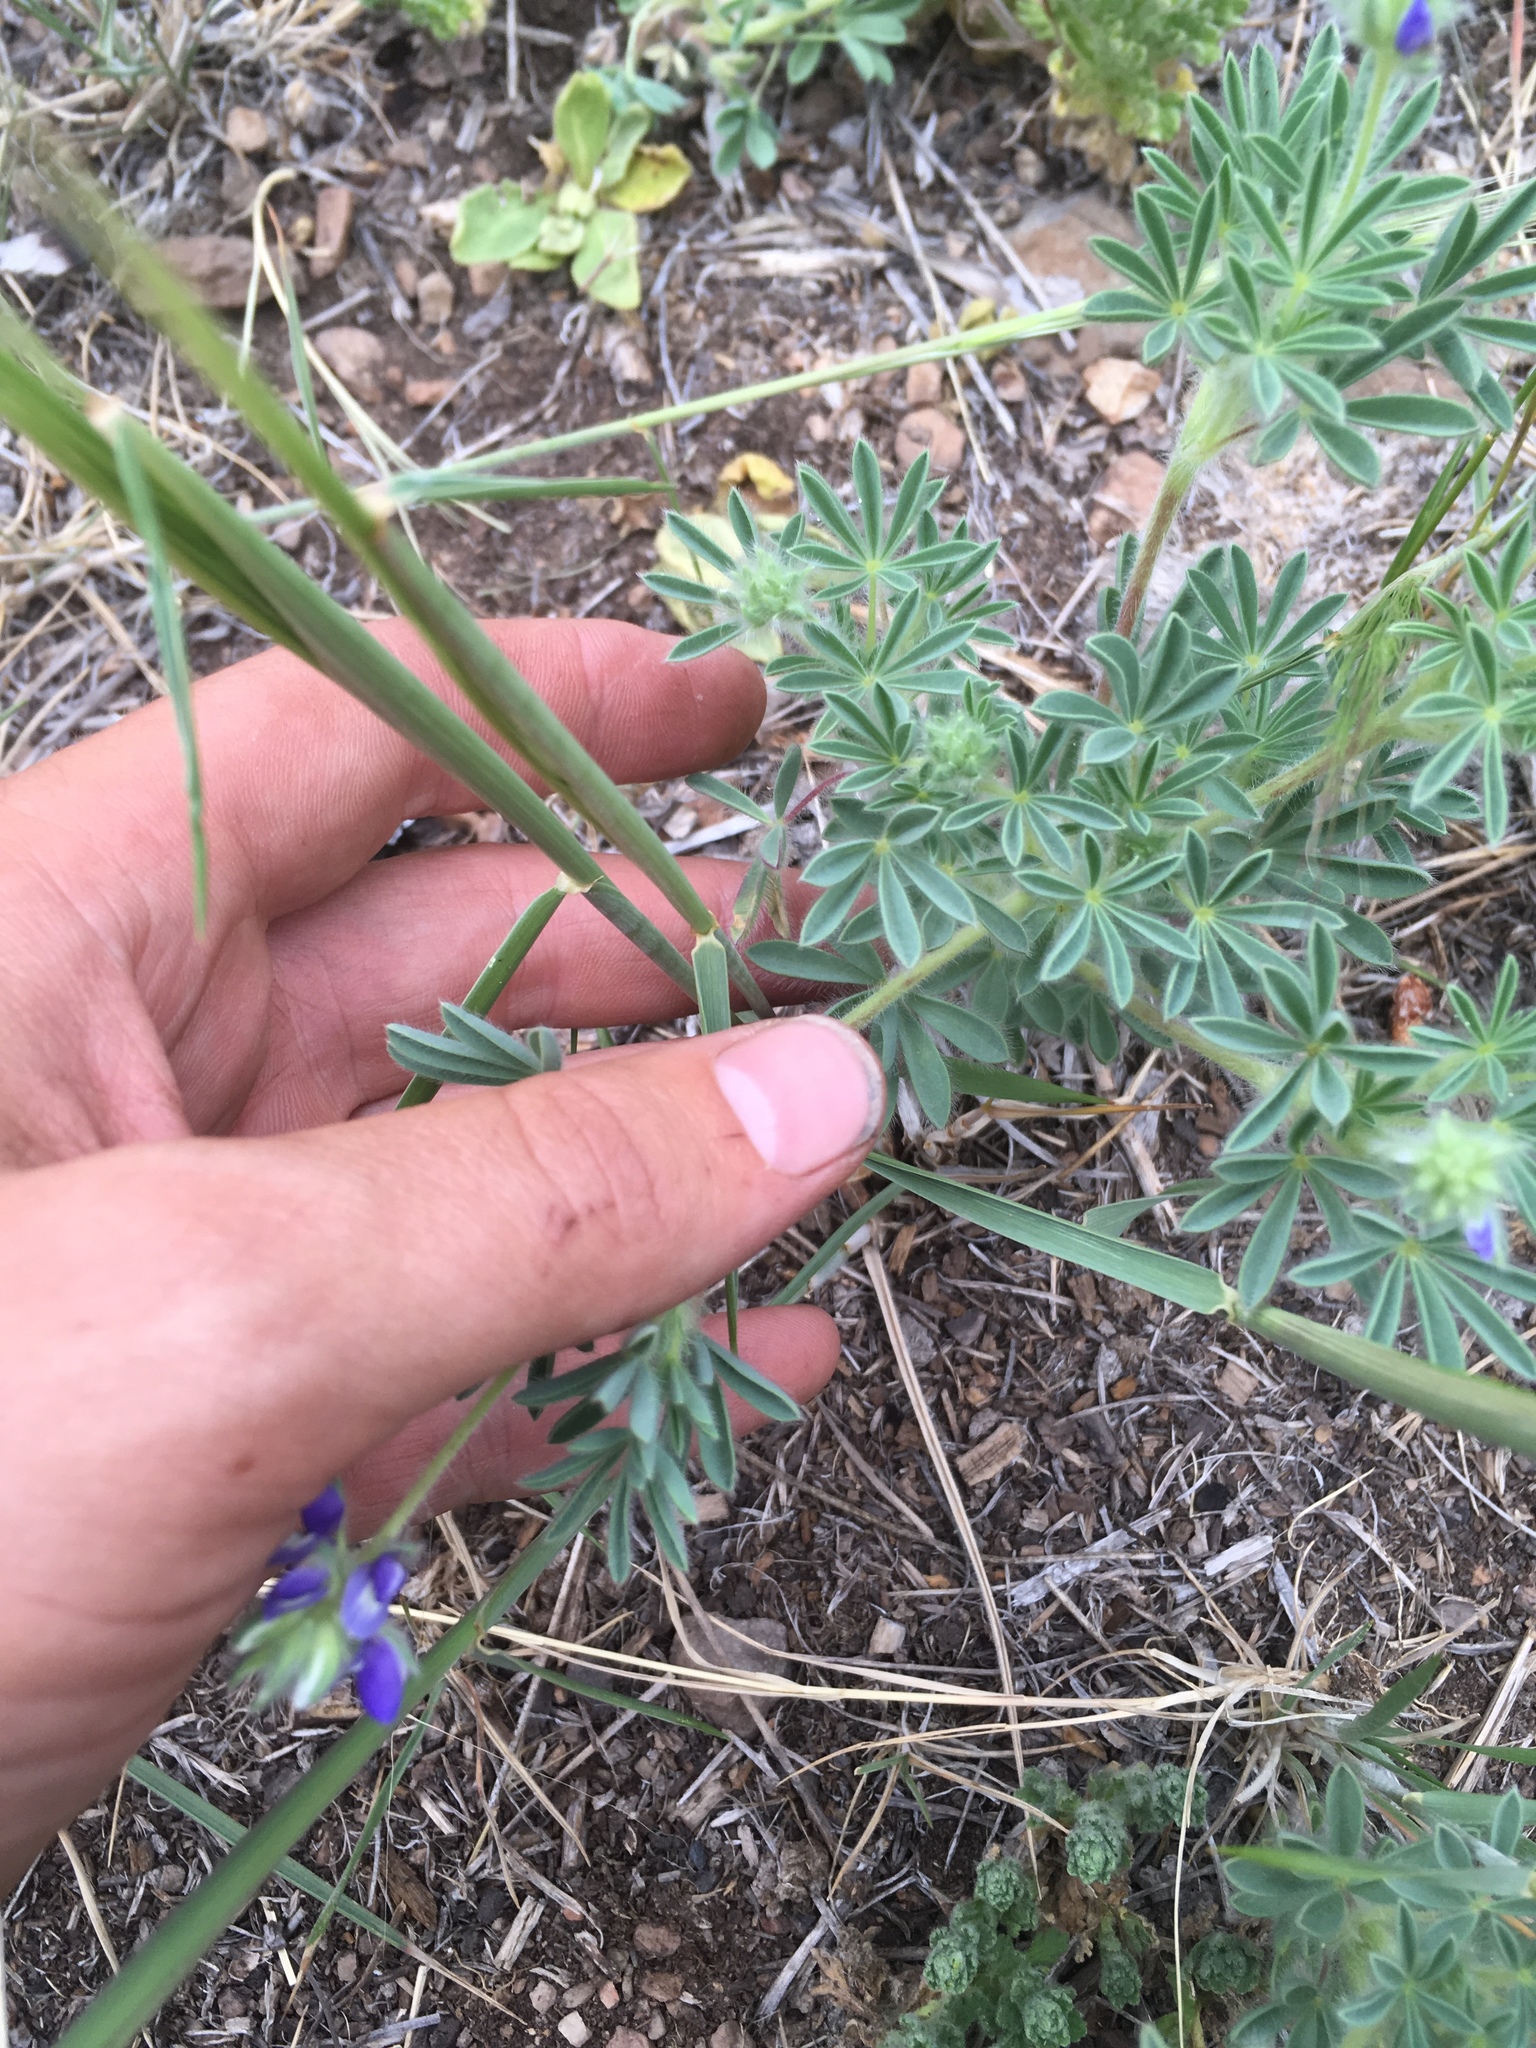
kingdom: Plantae
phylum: Tracheophyta
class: Magnoliopsida
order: Fabales
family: Fabaceae
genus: Lupinus
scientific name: Lupinus kingii
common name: King's lupine
